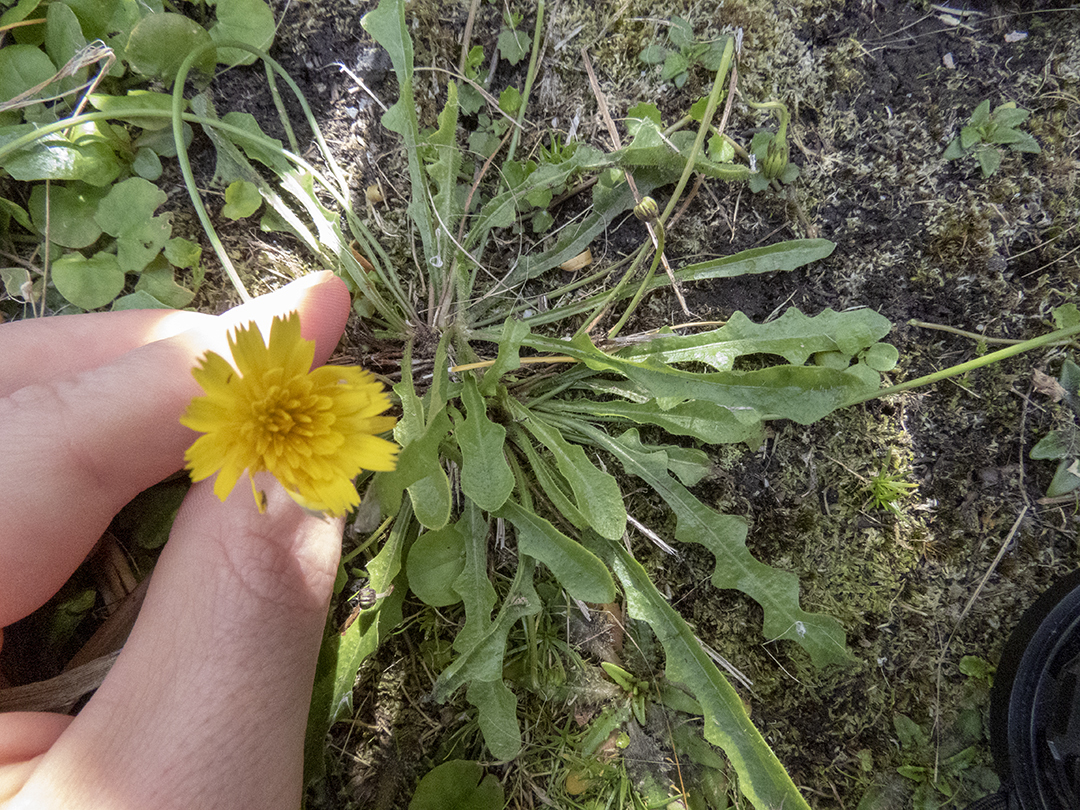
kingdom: Plantae
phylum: Tracheophyta
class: Magnoliopsida
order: Asterales
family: Asteraceae
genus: Thrincia
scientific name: Thrincia saxatilis
